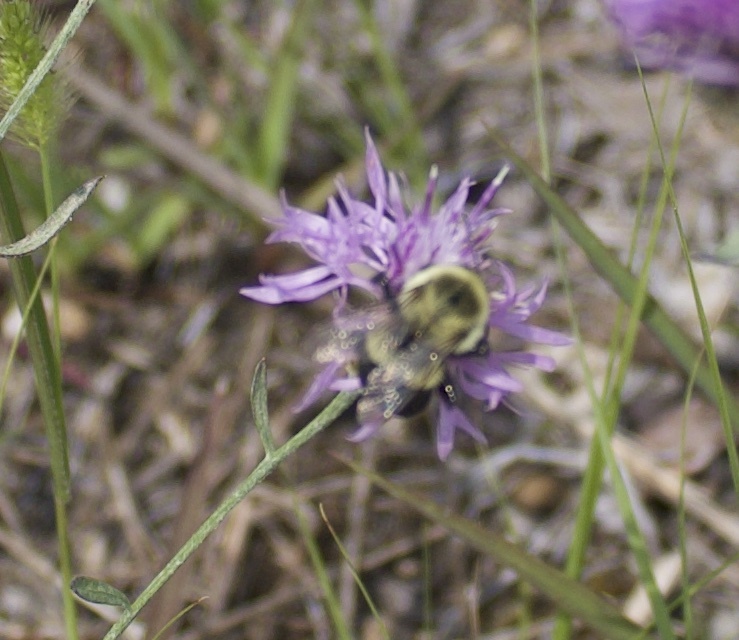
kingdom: Animalia
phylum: Arthropoda
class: Insecta
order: Hymenoptera
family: Apidae
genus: Bombus
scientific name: Bombus impatiens
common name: Common eastern bumble bee
